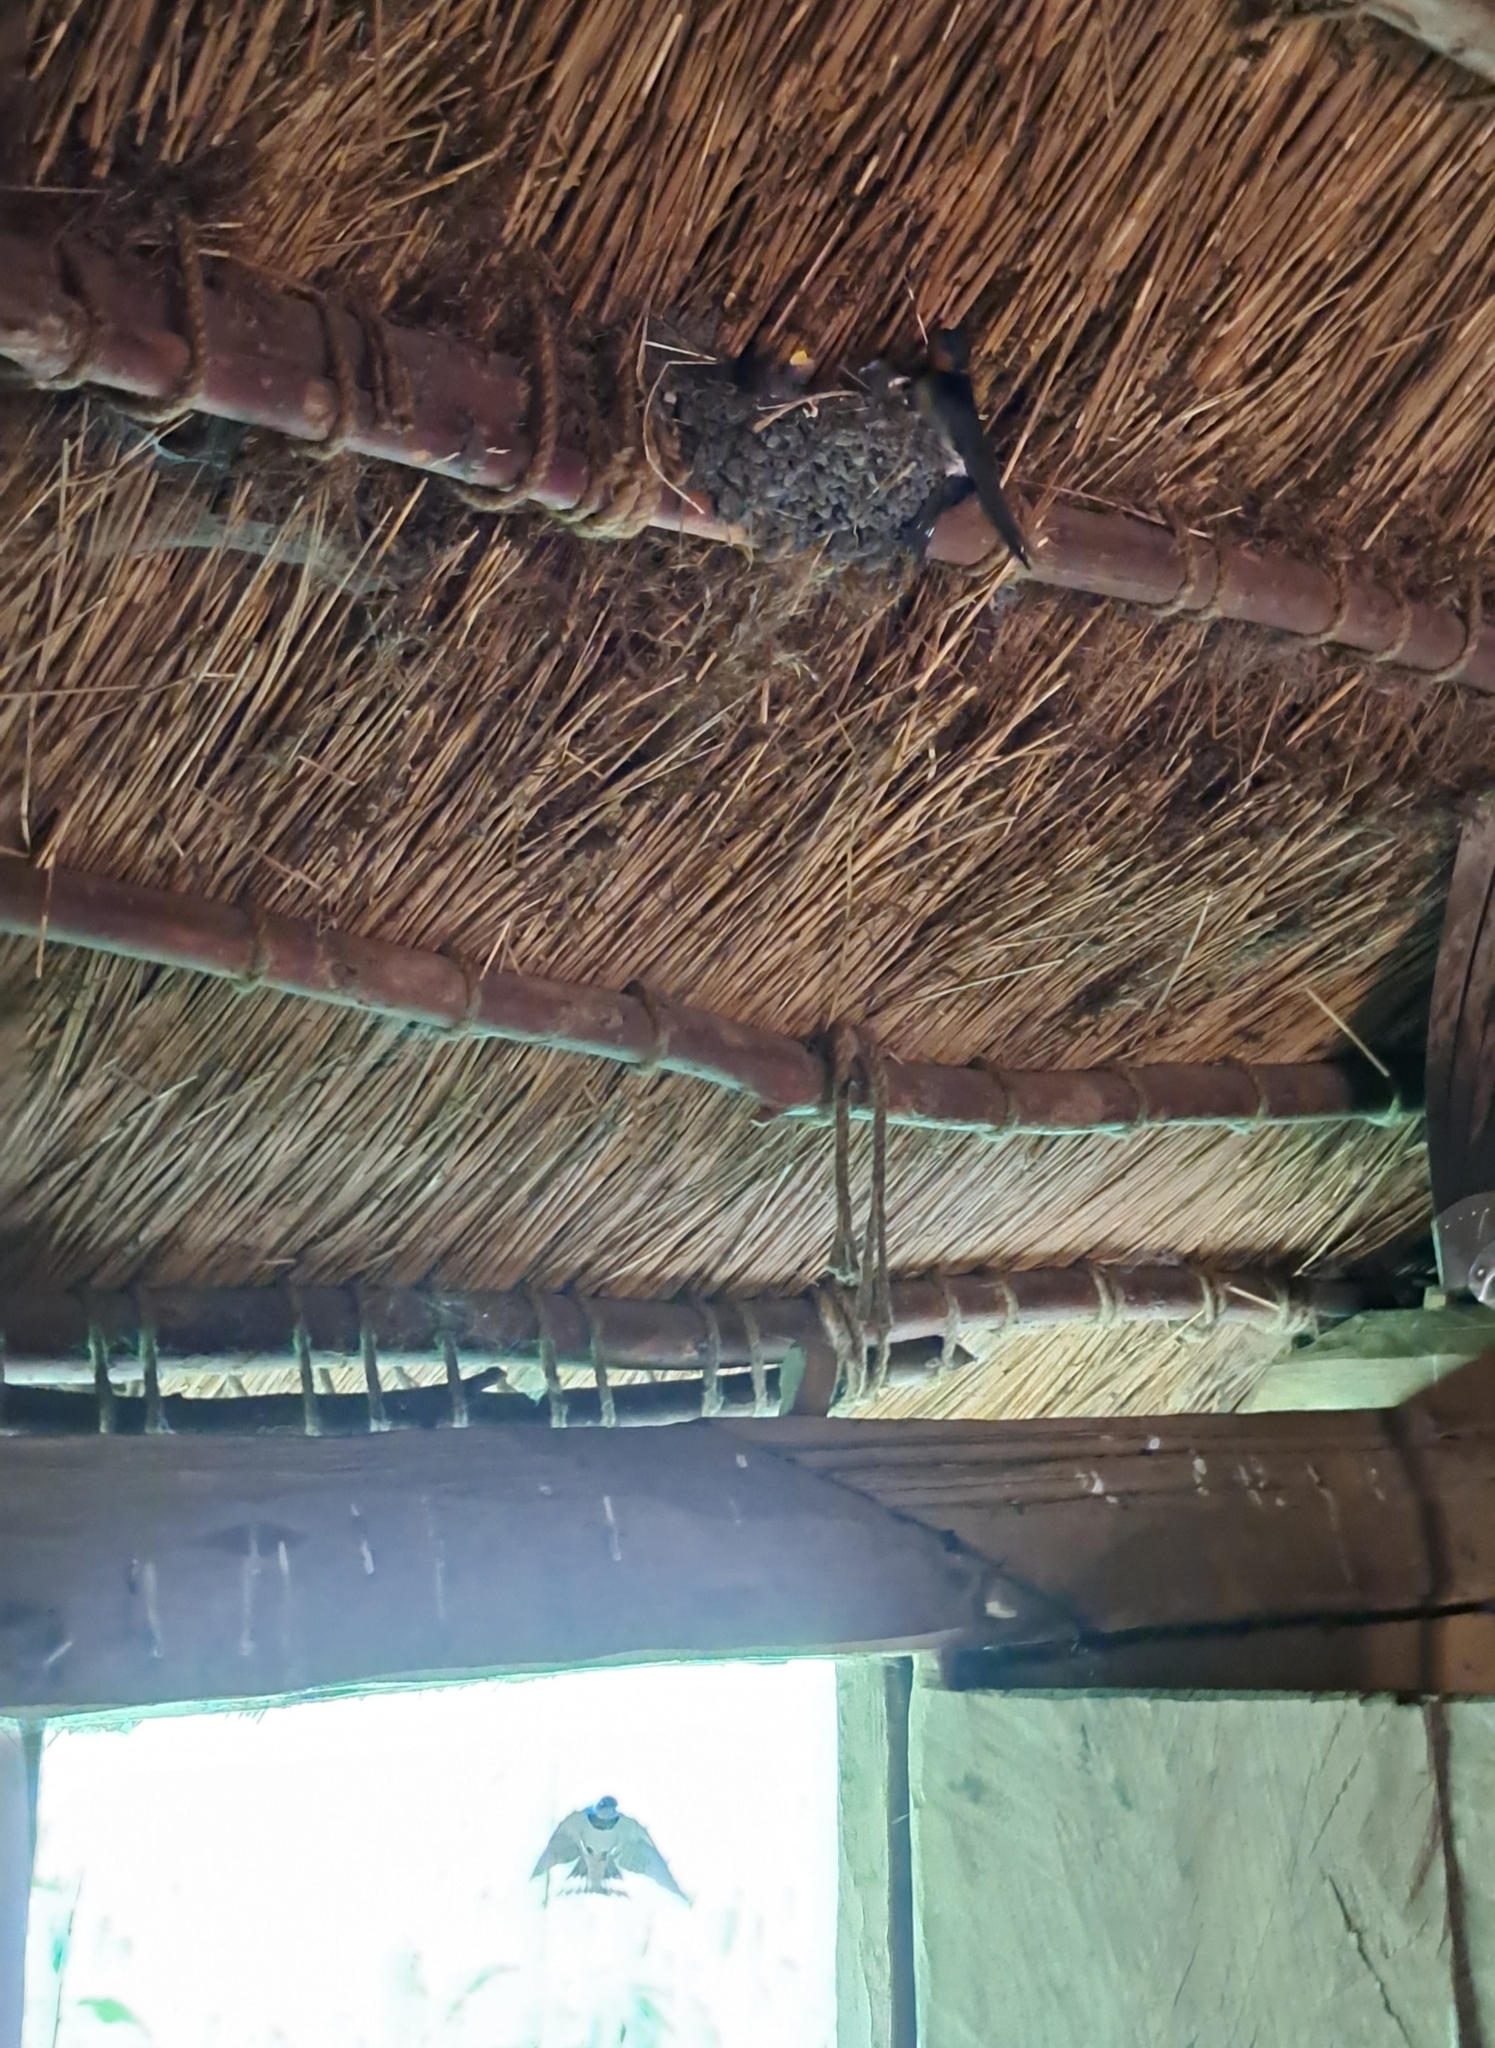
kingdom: Animalia
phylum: Chordata
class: Aves
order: Passeriformes
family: Hirundinidae
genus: Hirundo
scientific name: Hirundo rustica
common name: Barn swallow
